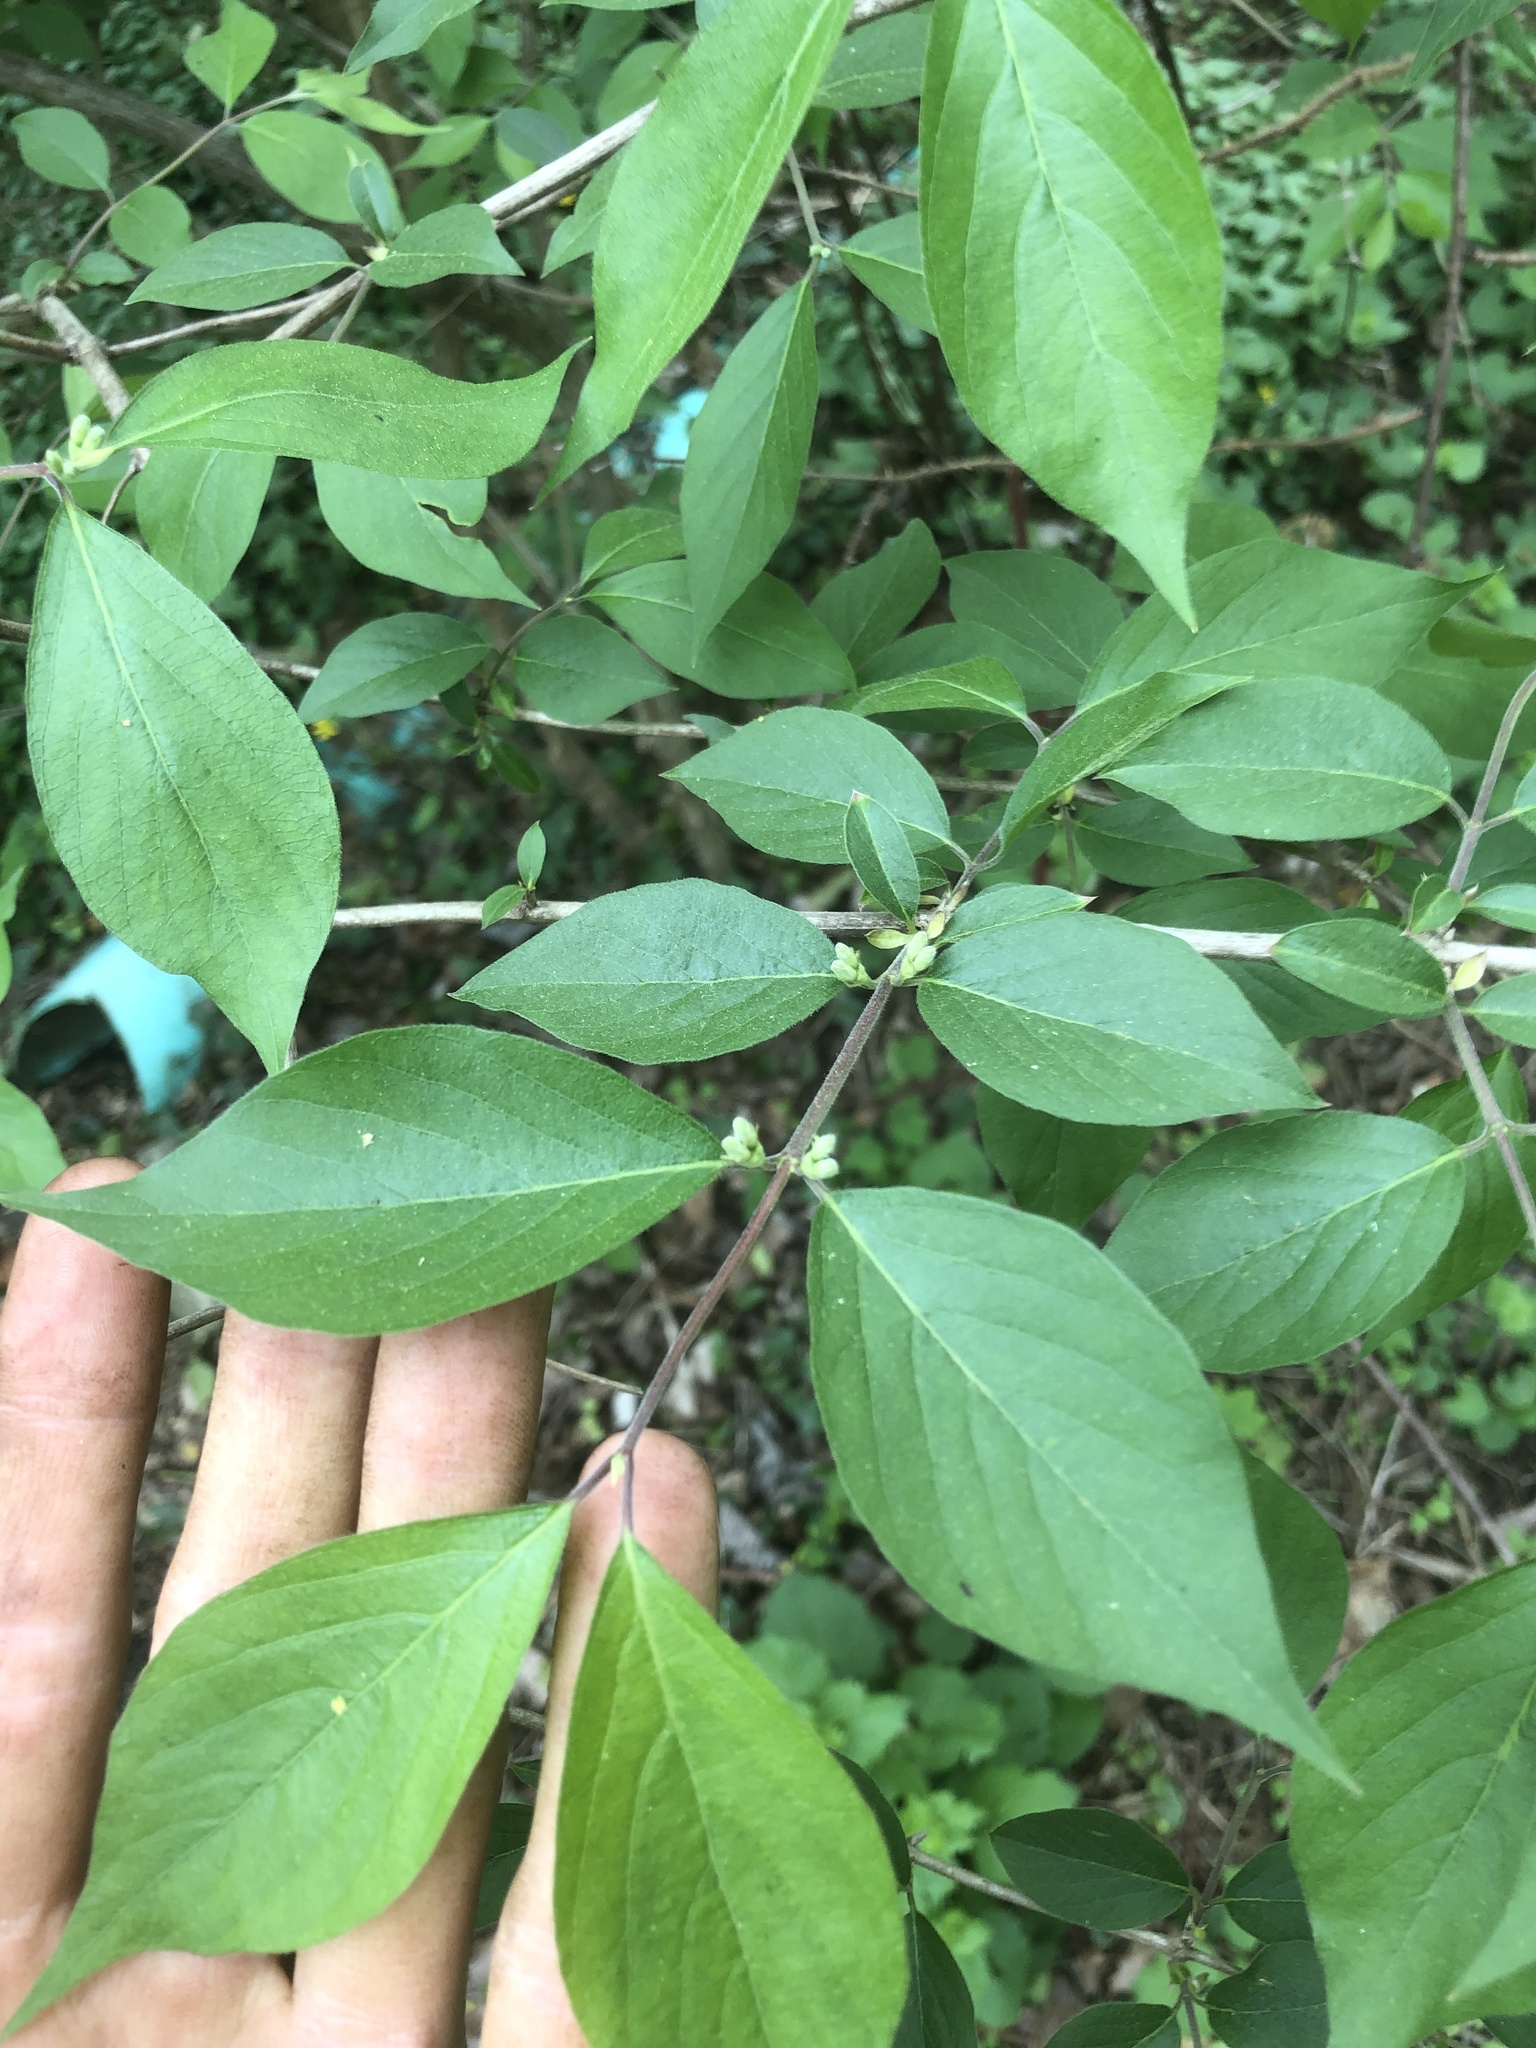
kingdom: Plantae
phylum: Tracheophyta
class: Magnoliopsida
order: Dipsacales
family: Caprifoliaceae
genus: Lonicera
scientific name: Lonicera maackii
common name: Amur honeysuckle
